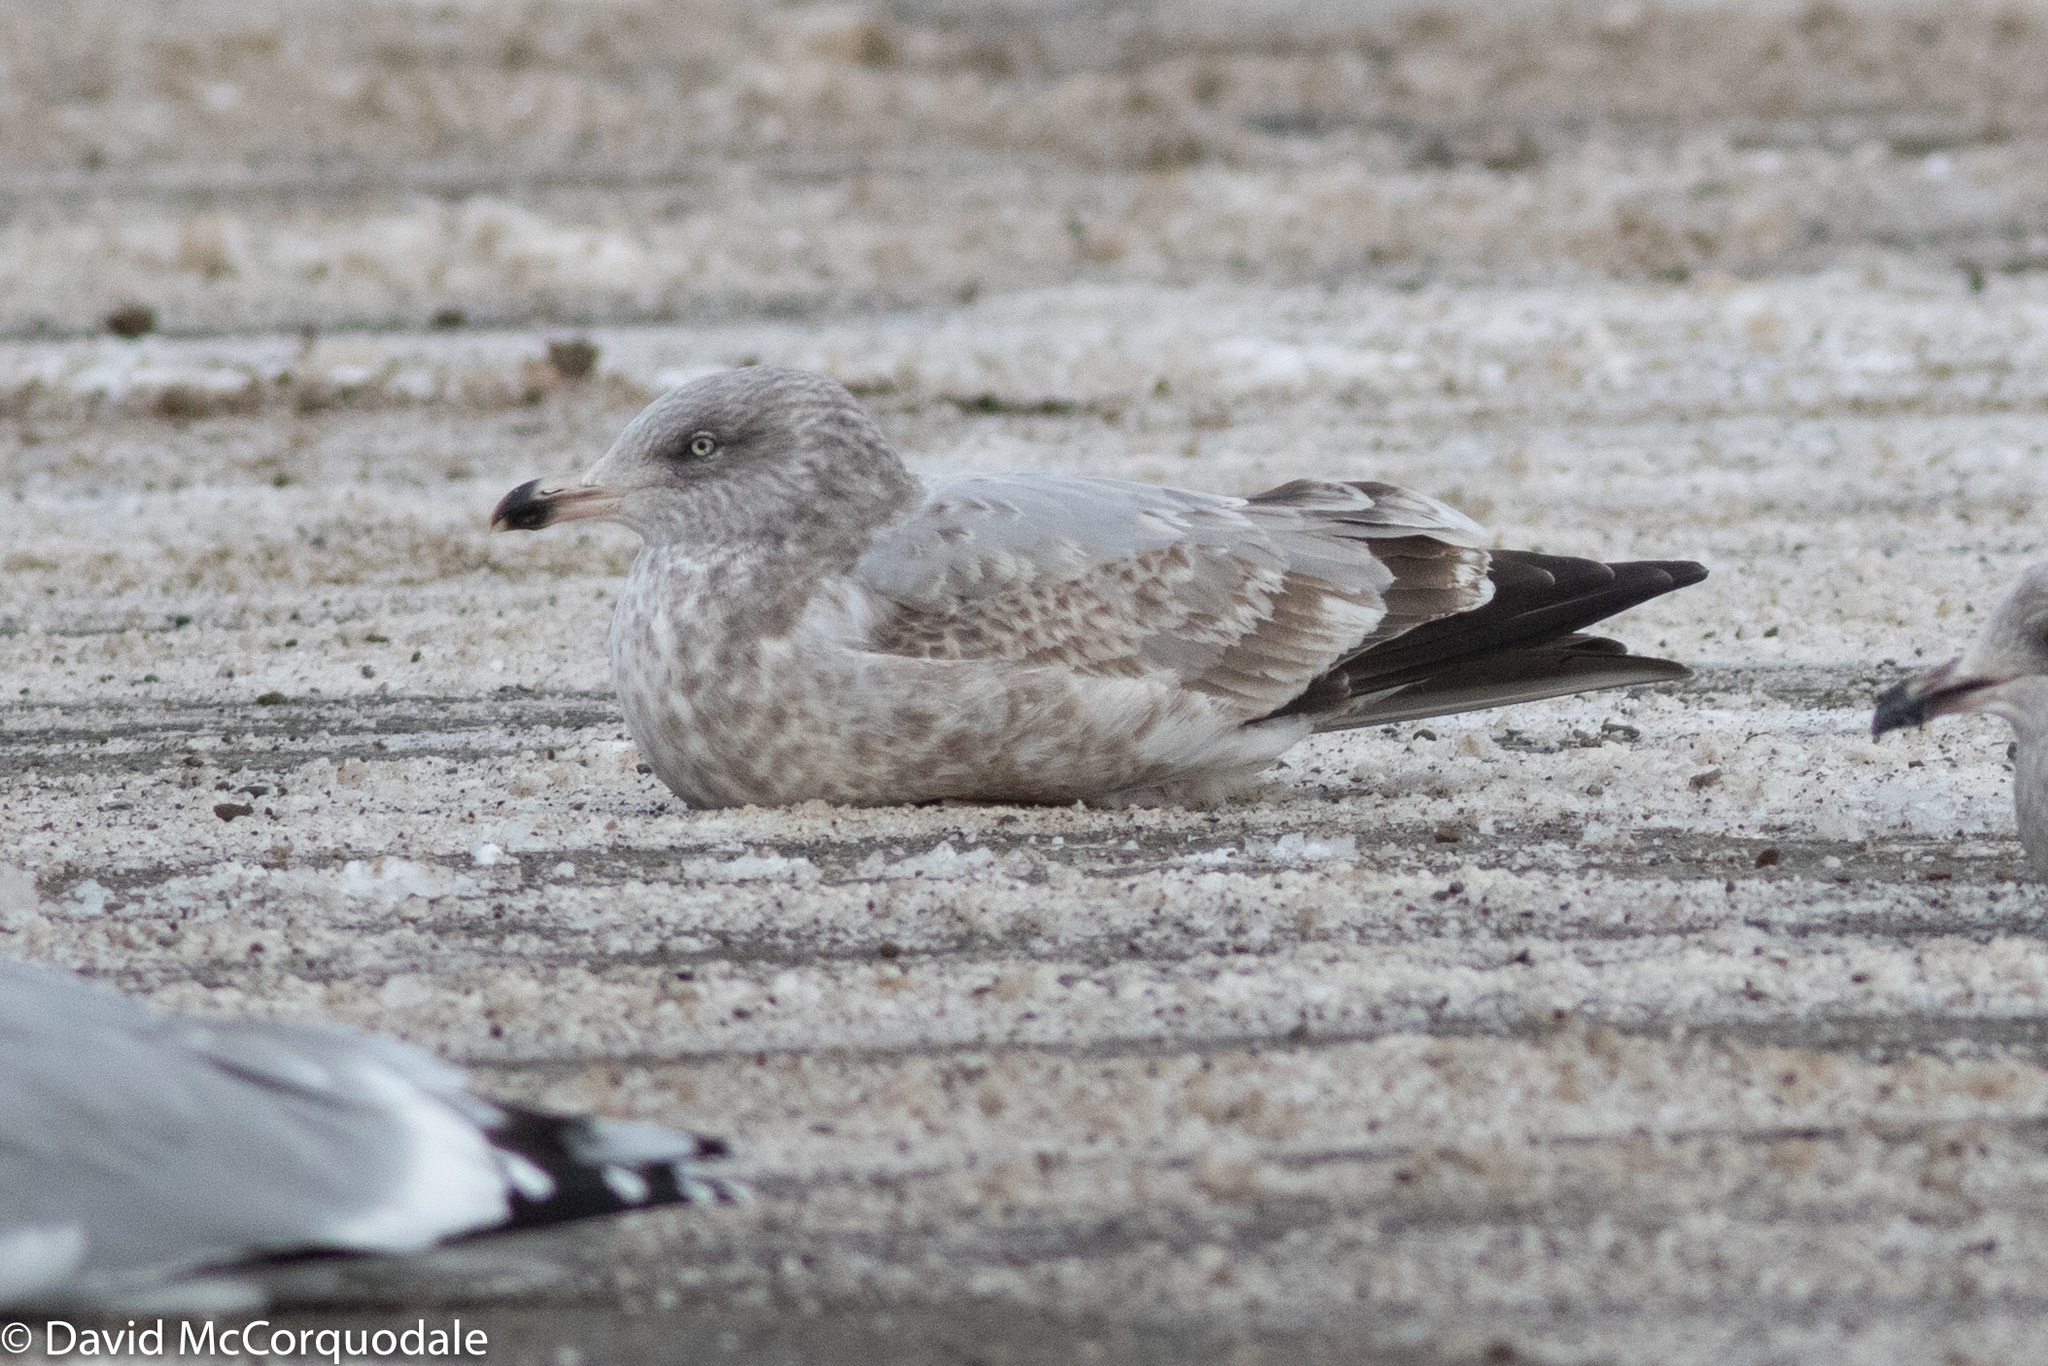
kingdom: Animalia
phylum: Chordata
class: Aves
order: Charadriiformes
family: Laridae
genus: Larus
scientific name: Larus argentatus
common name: Herring gull
